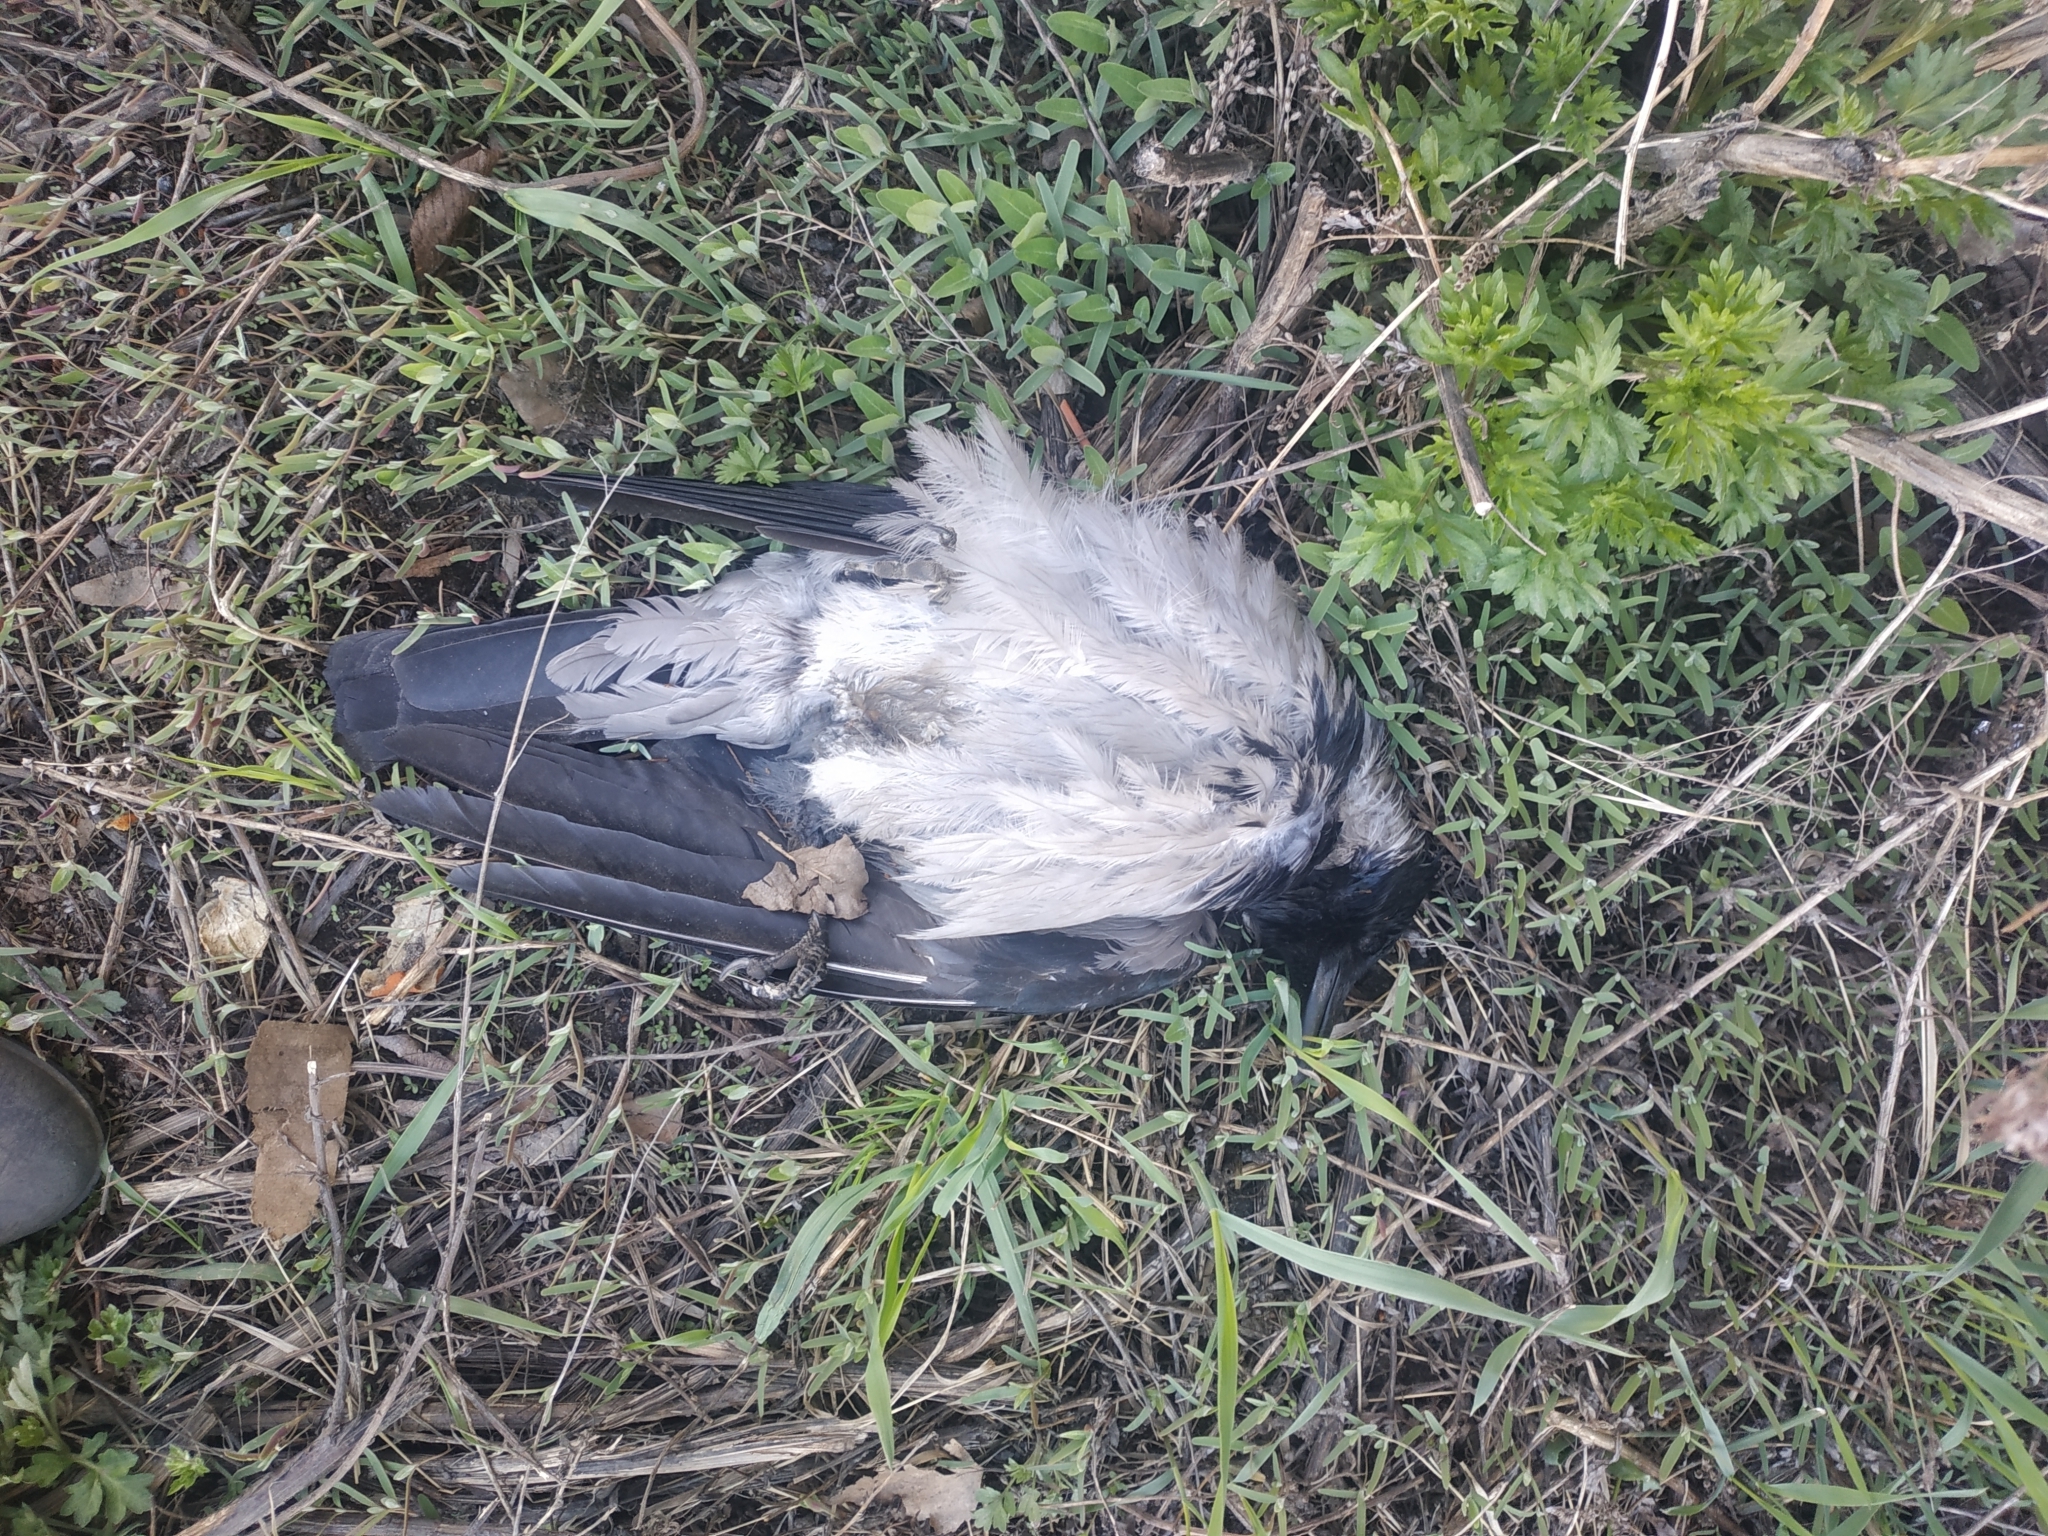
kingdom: Animalia
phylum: Chordata
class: Aves
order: Passeriformes
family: Corvidae
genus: Corvus
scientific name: Corvus cornix
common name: Hooded crow
